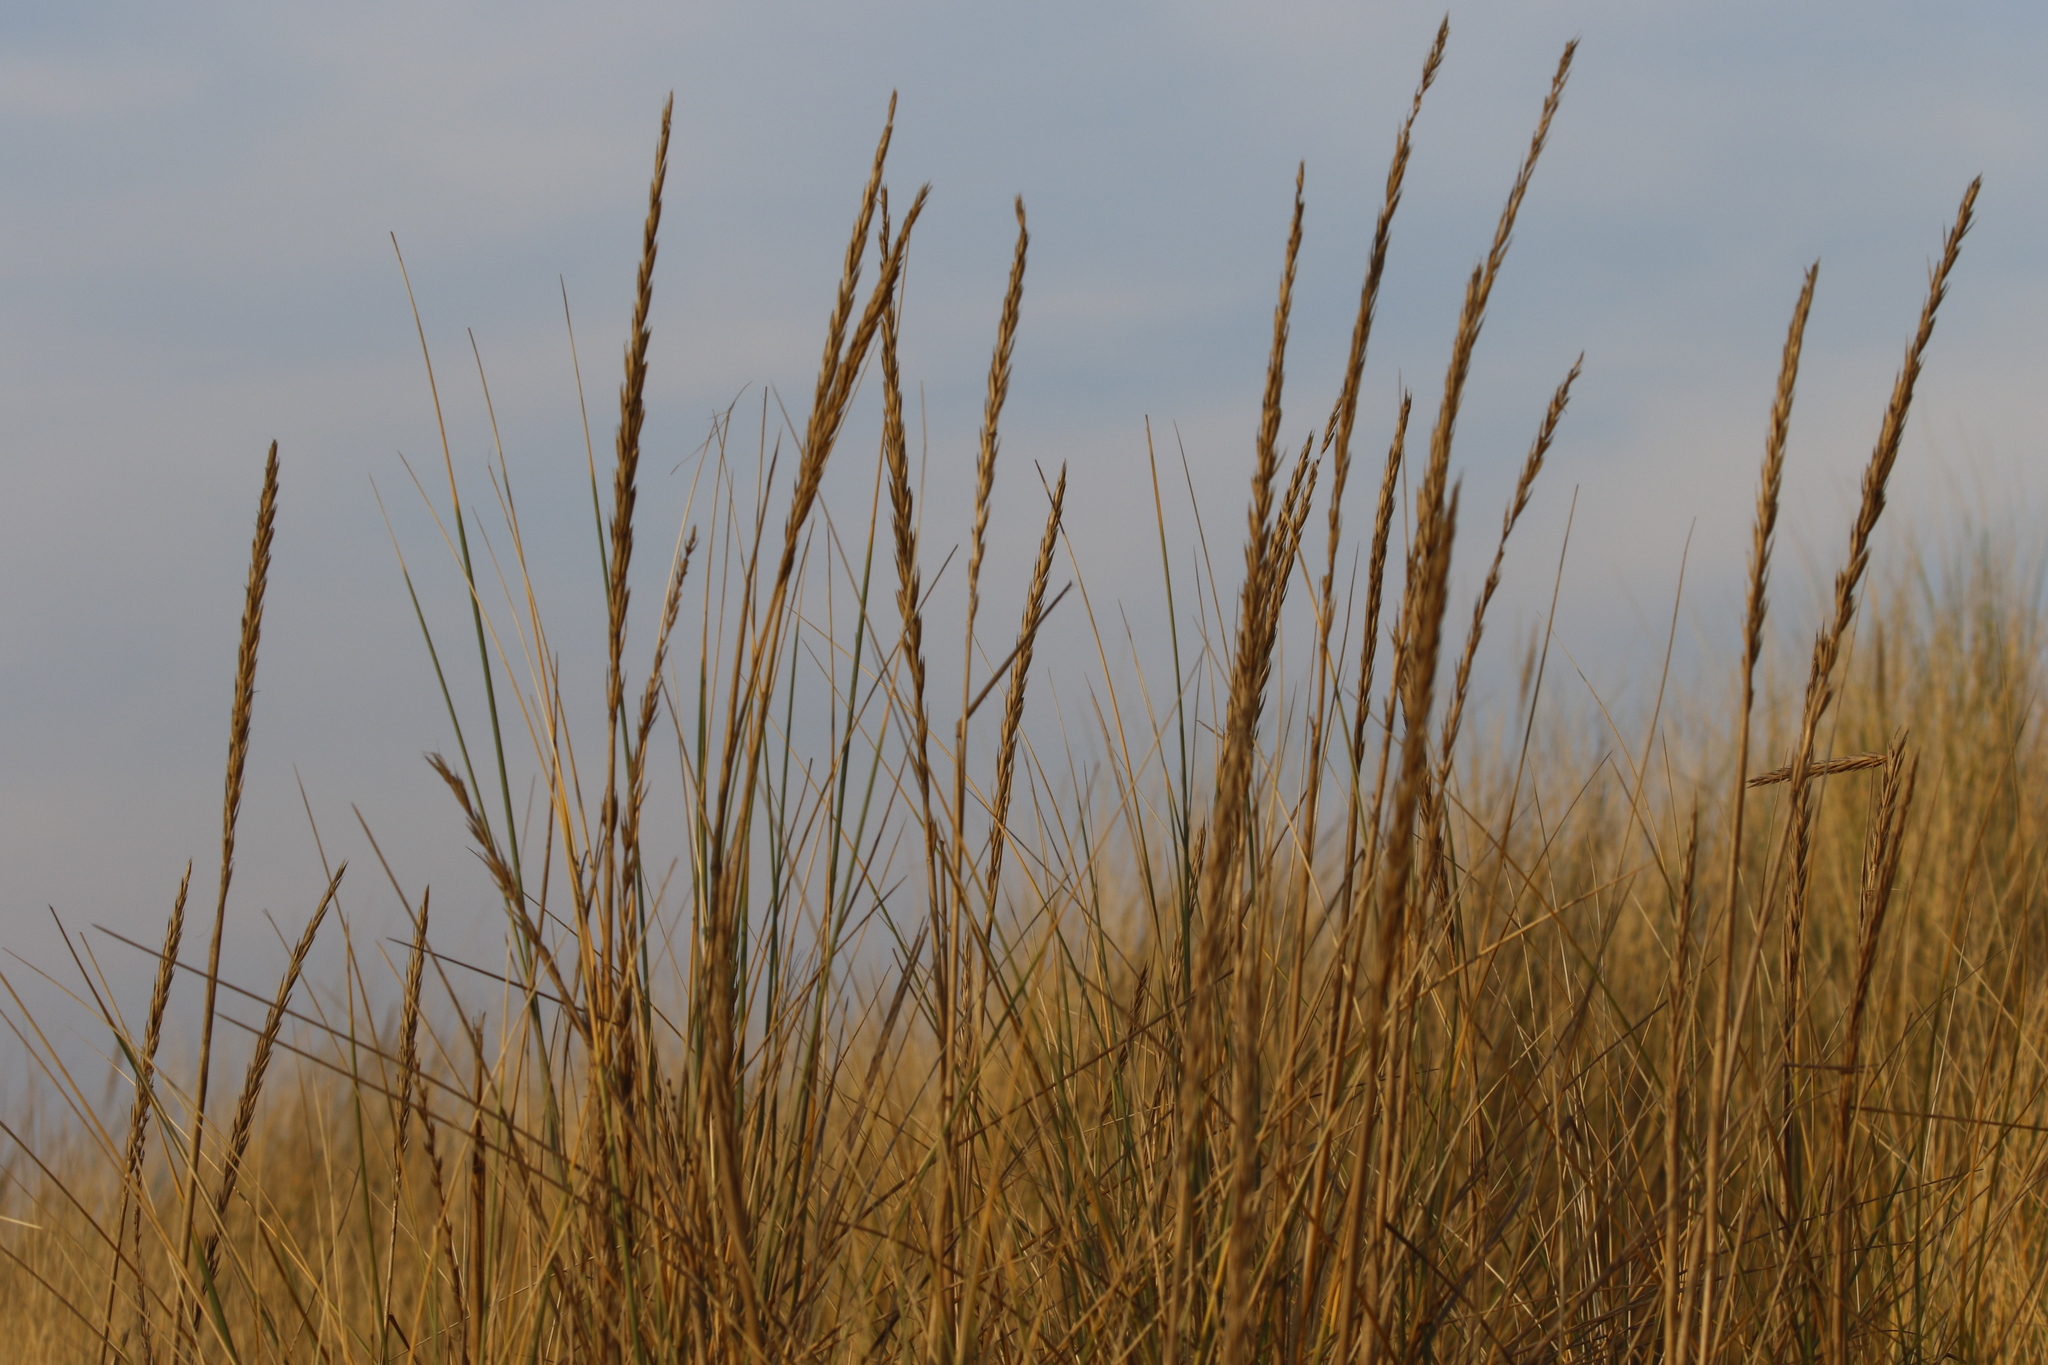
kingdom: Plantae
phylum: Tracheophyta
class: Liliopsida
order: Poales
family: Poaceae
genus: Calamagrostis
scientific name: Calamagrostis arenaria
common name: European beachgrass
